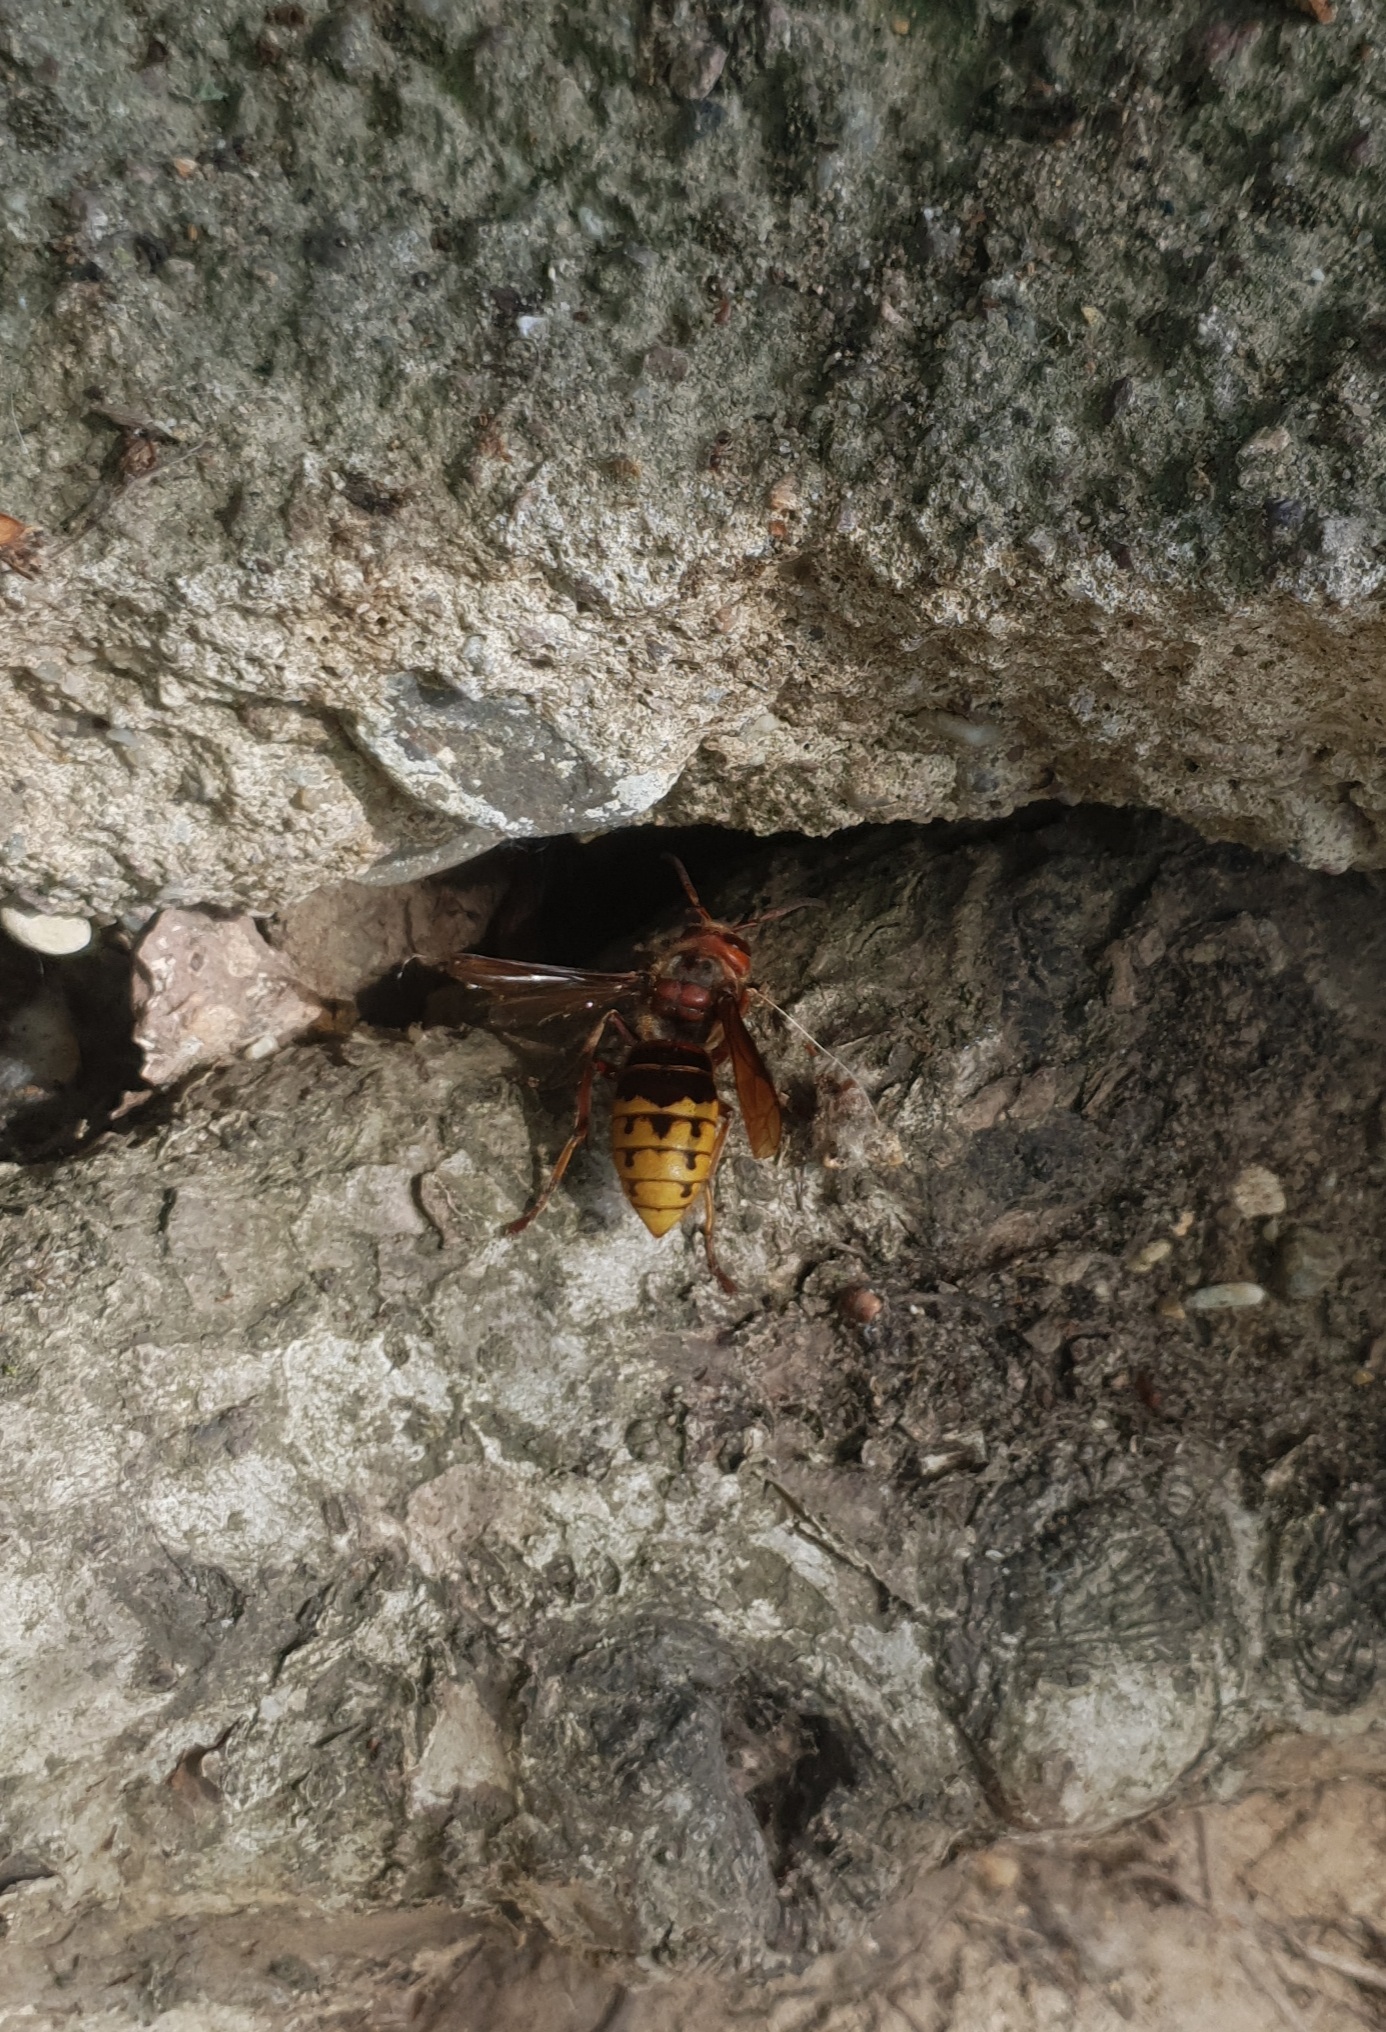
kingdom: Animalia
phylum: Arthropoda
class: Insecta
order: Hymenoptera
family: Vespidae
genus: Vespa
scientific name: Vespa crabro
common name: Hornet
